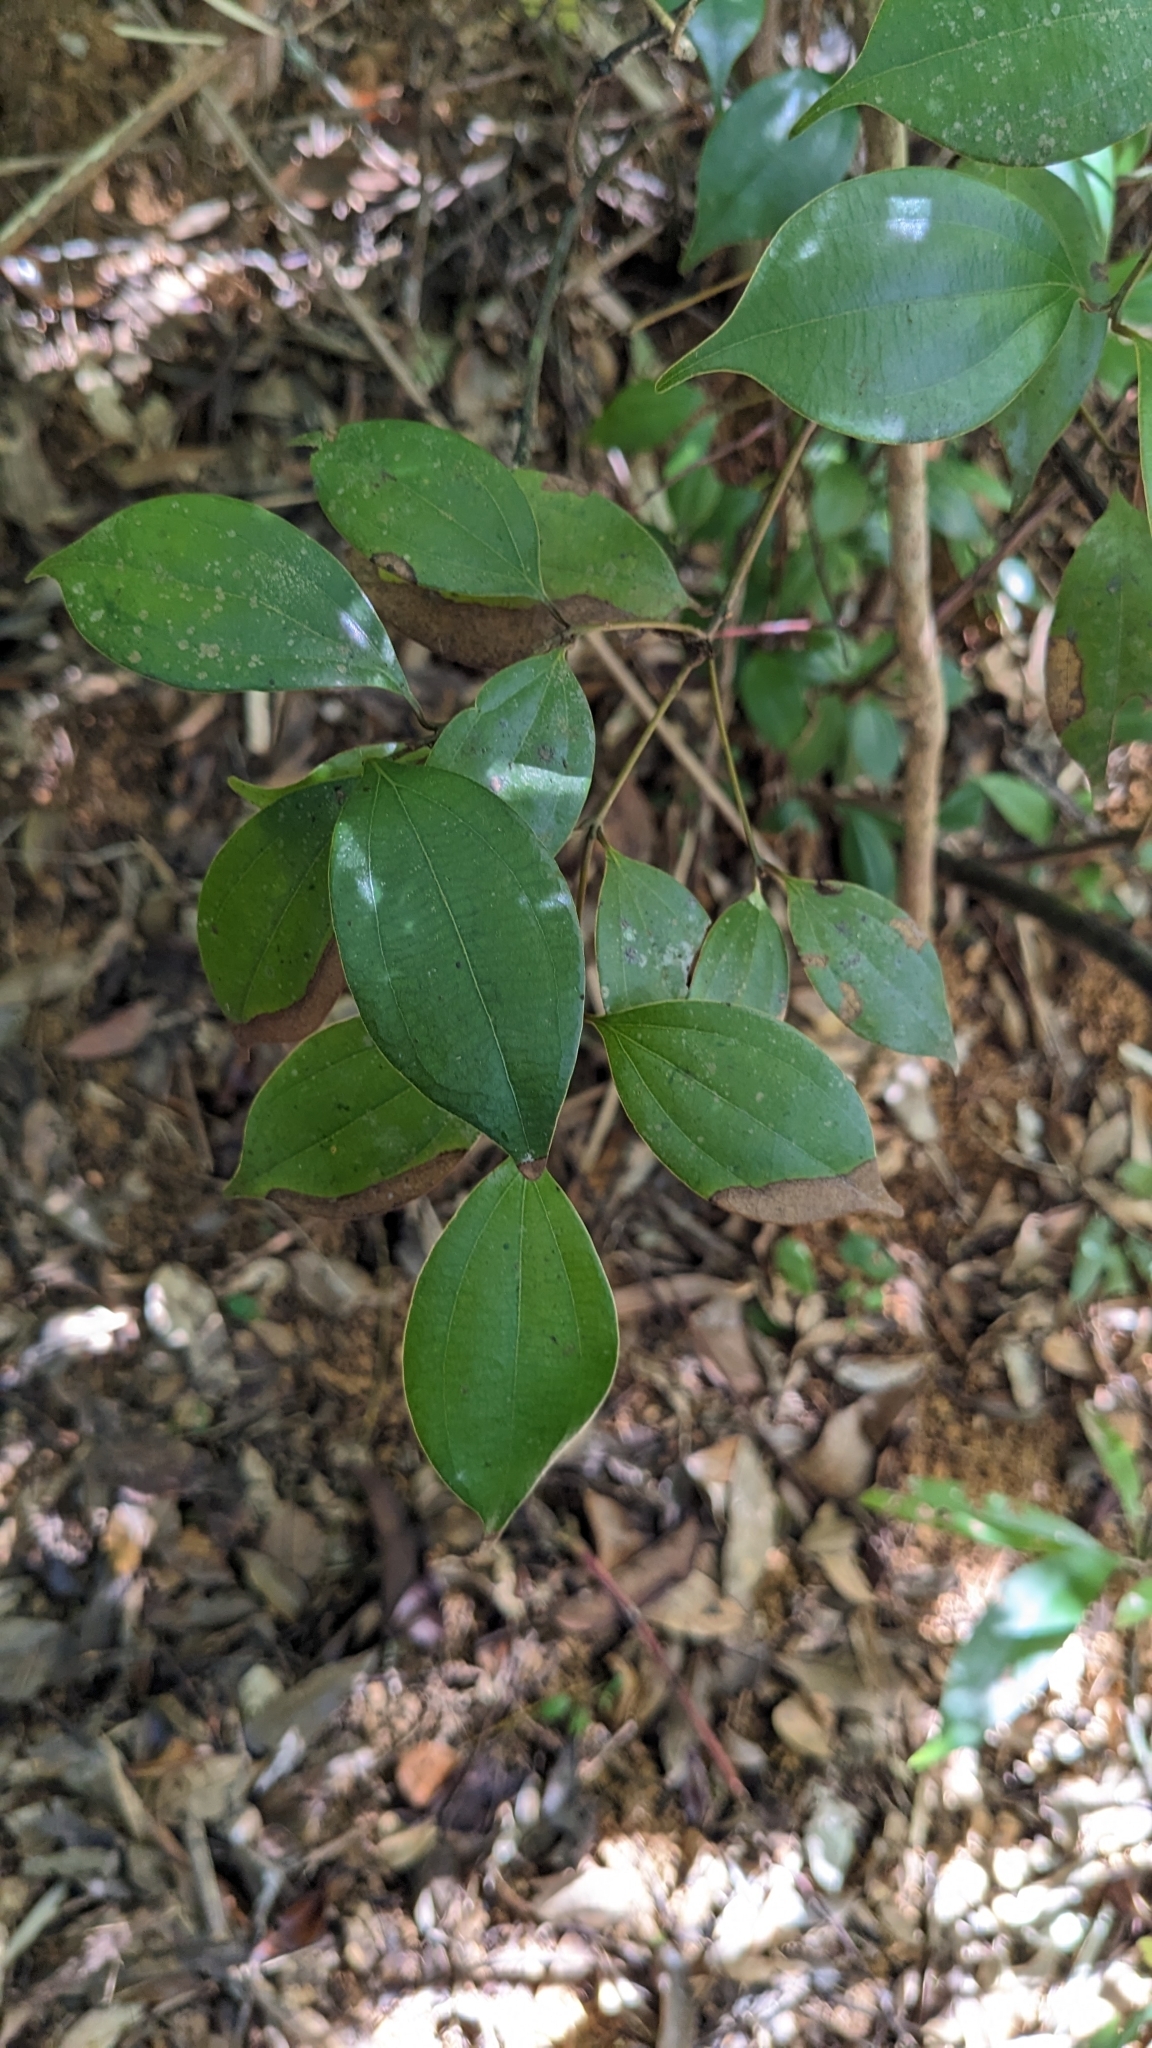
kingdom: Plantae
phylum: Tracheophyta
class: Magnoliopsida
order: Laurales
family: Lauraceae
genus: Cinnamomum
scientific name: Cinnamomum rigidissimum
